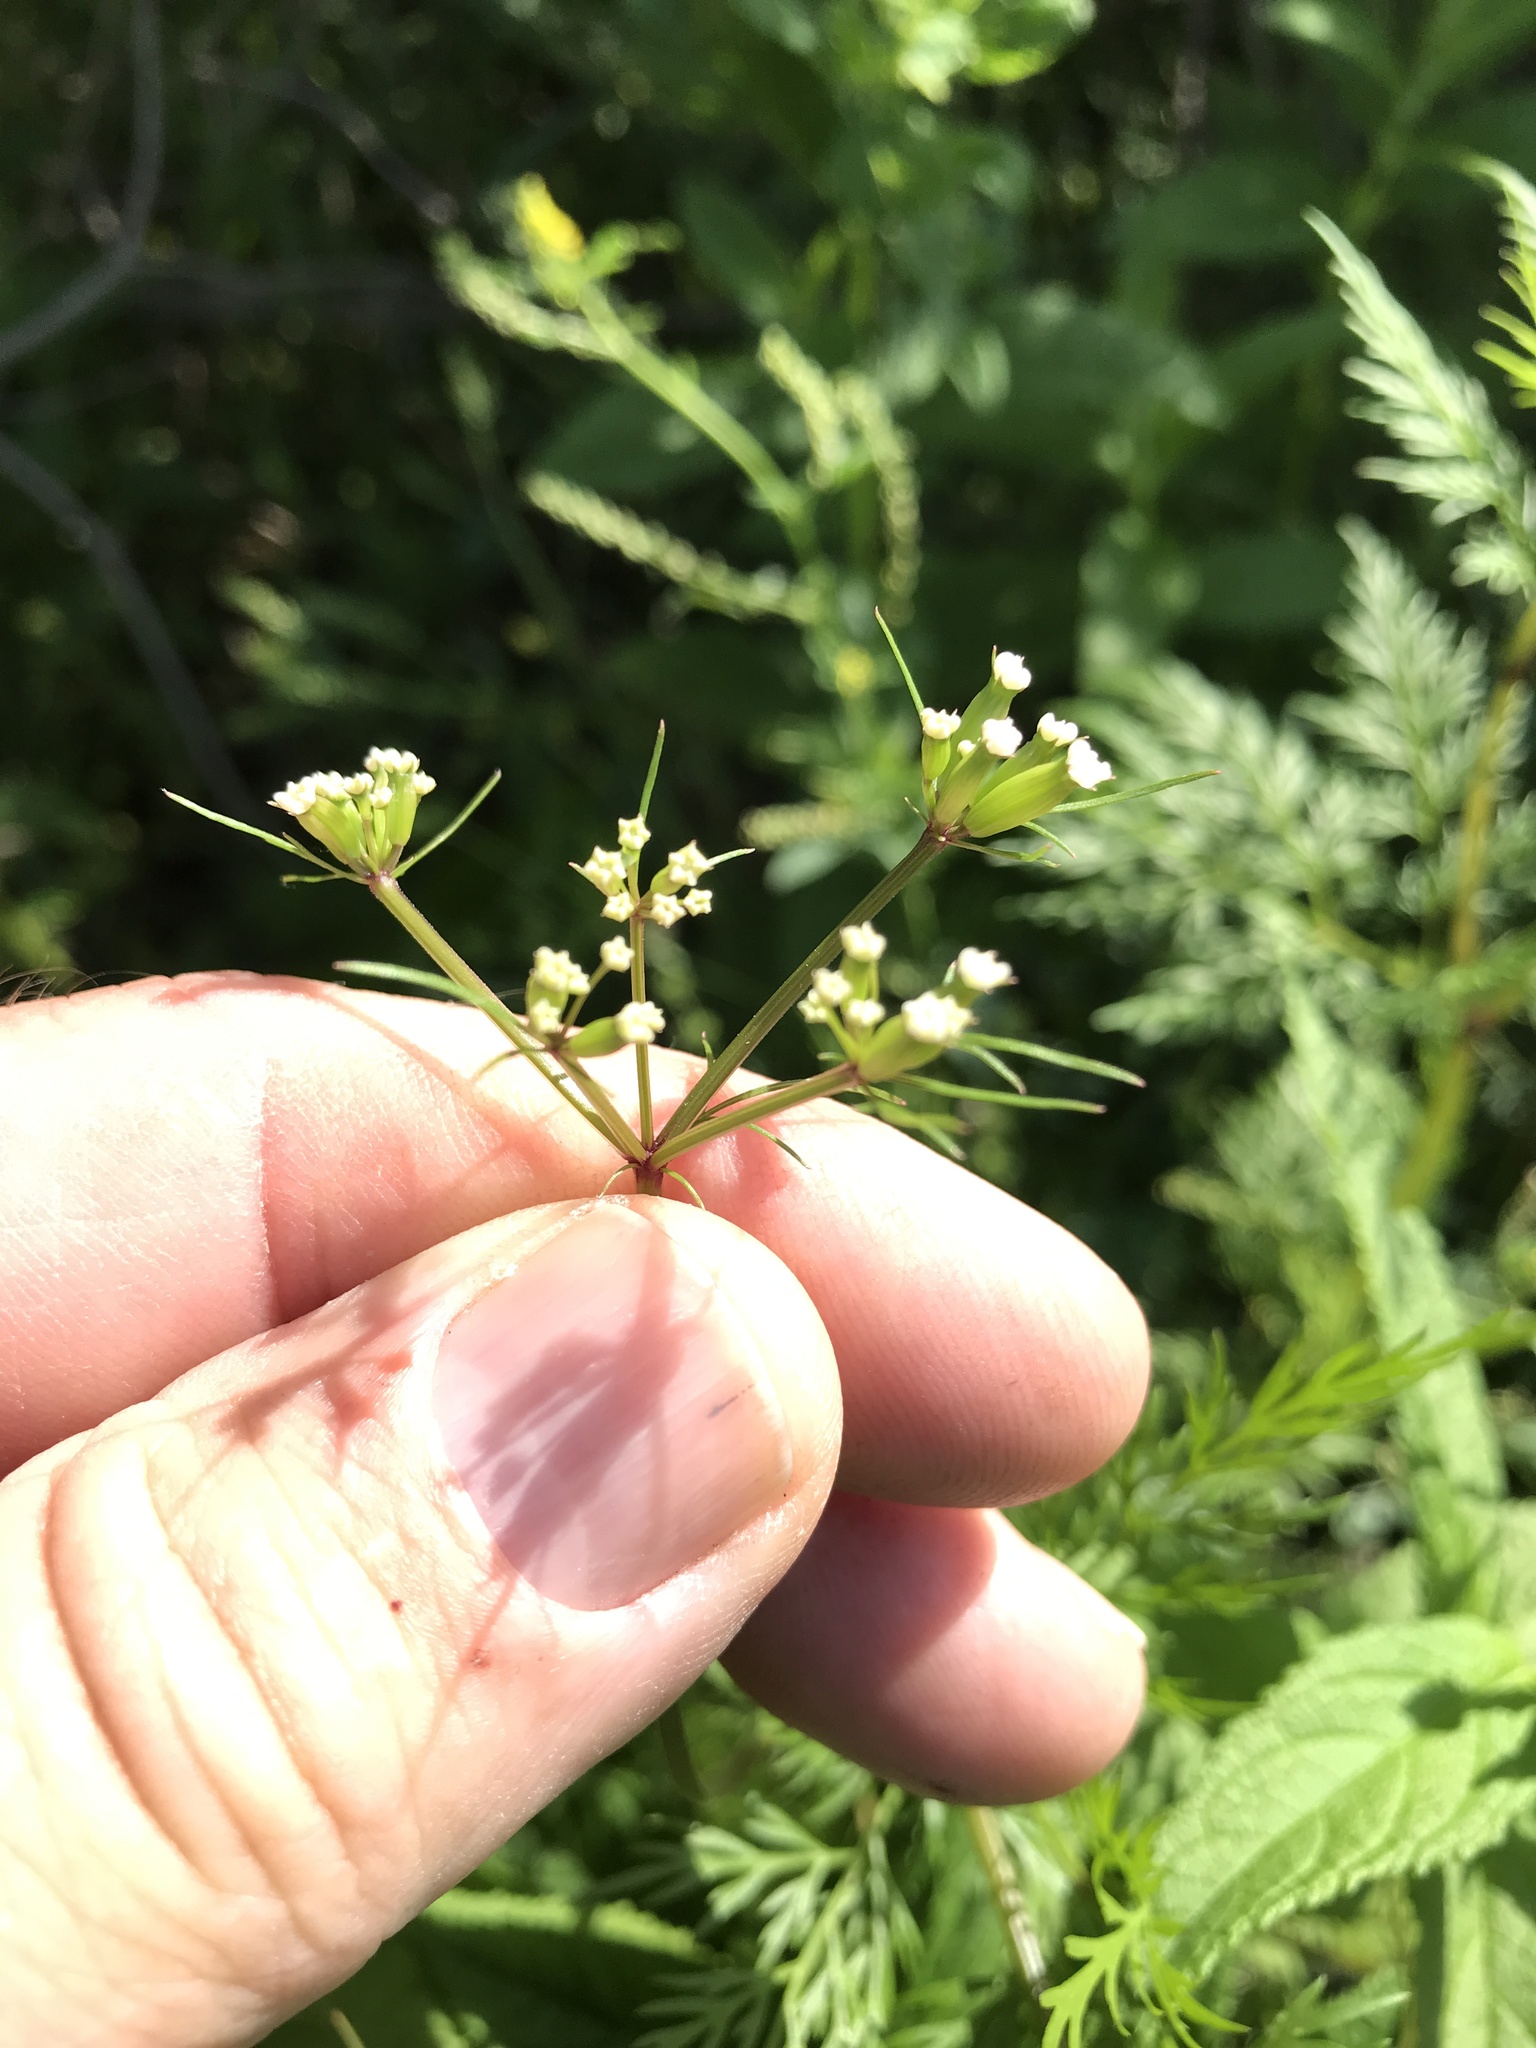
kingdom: Plantae
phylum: Tracheophyta
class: Magnoliopsida
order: Apiales
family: Apiaceae
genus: Trepocarpus
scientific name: Trepocarpus aethusae
